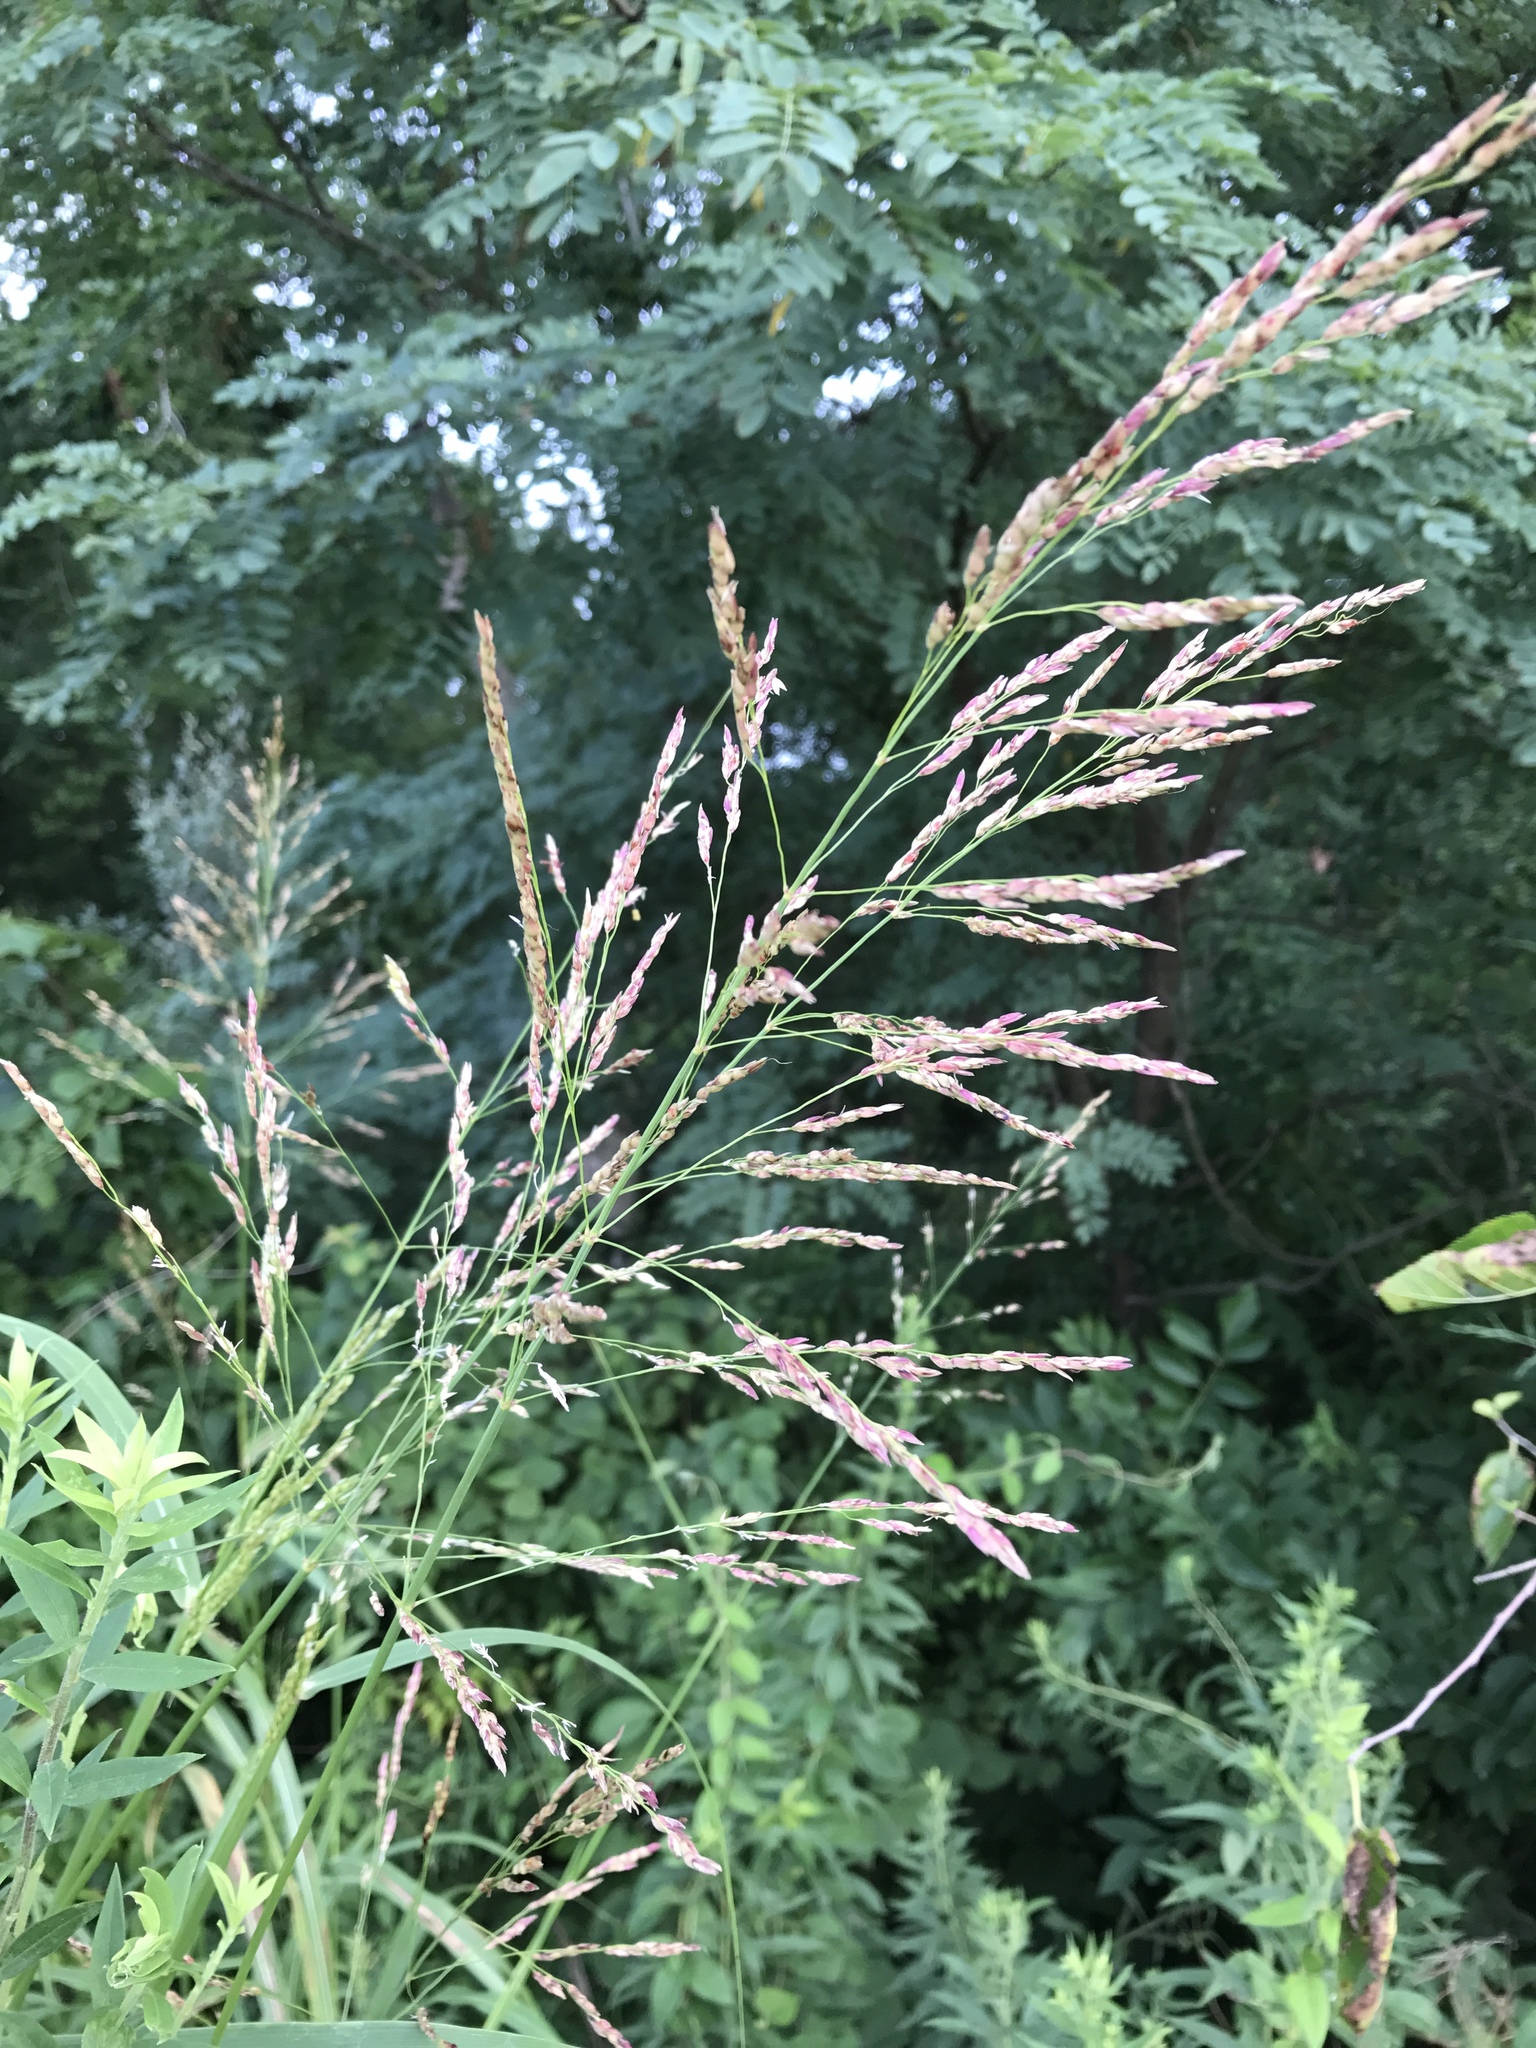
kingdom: Plantae
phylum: Tracheophyta
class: Liliopsida
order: Poales
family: Poaceae
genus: Sorghum
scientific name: Sorghum halepense
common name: Johnson-grass
